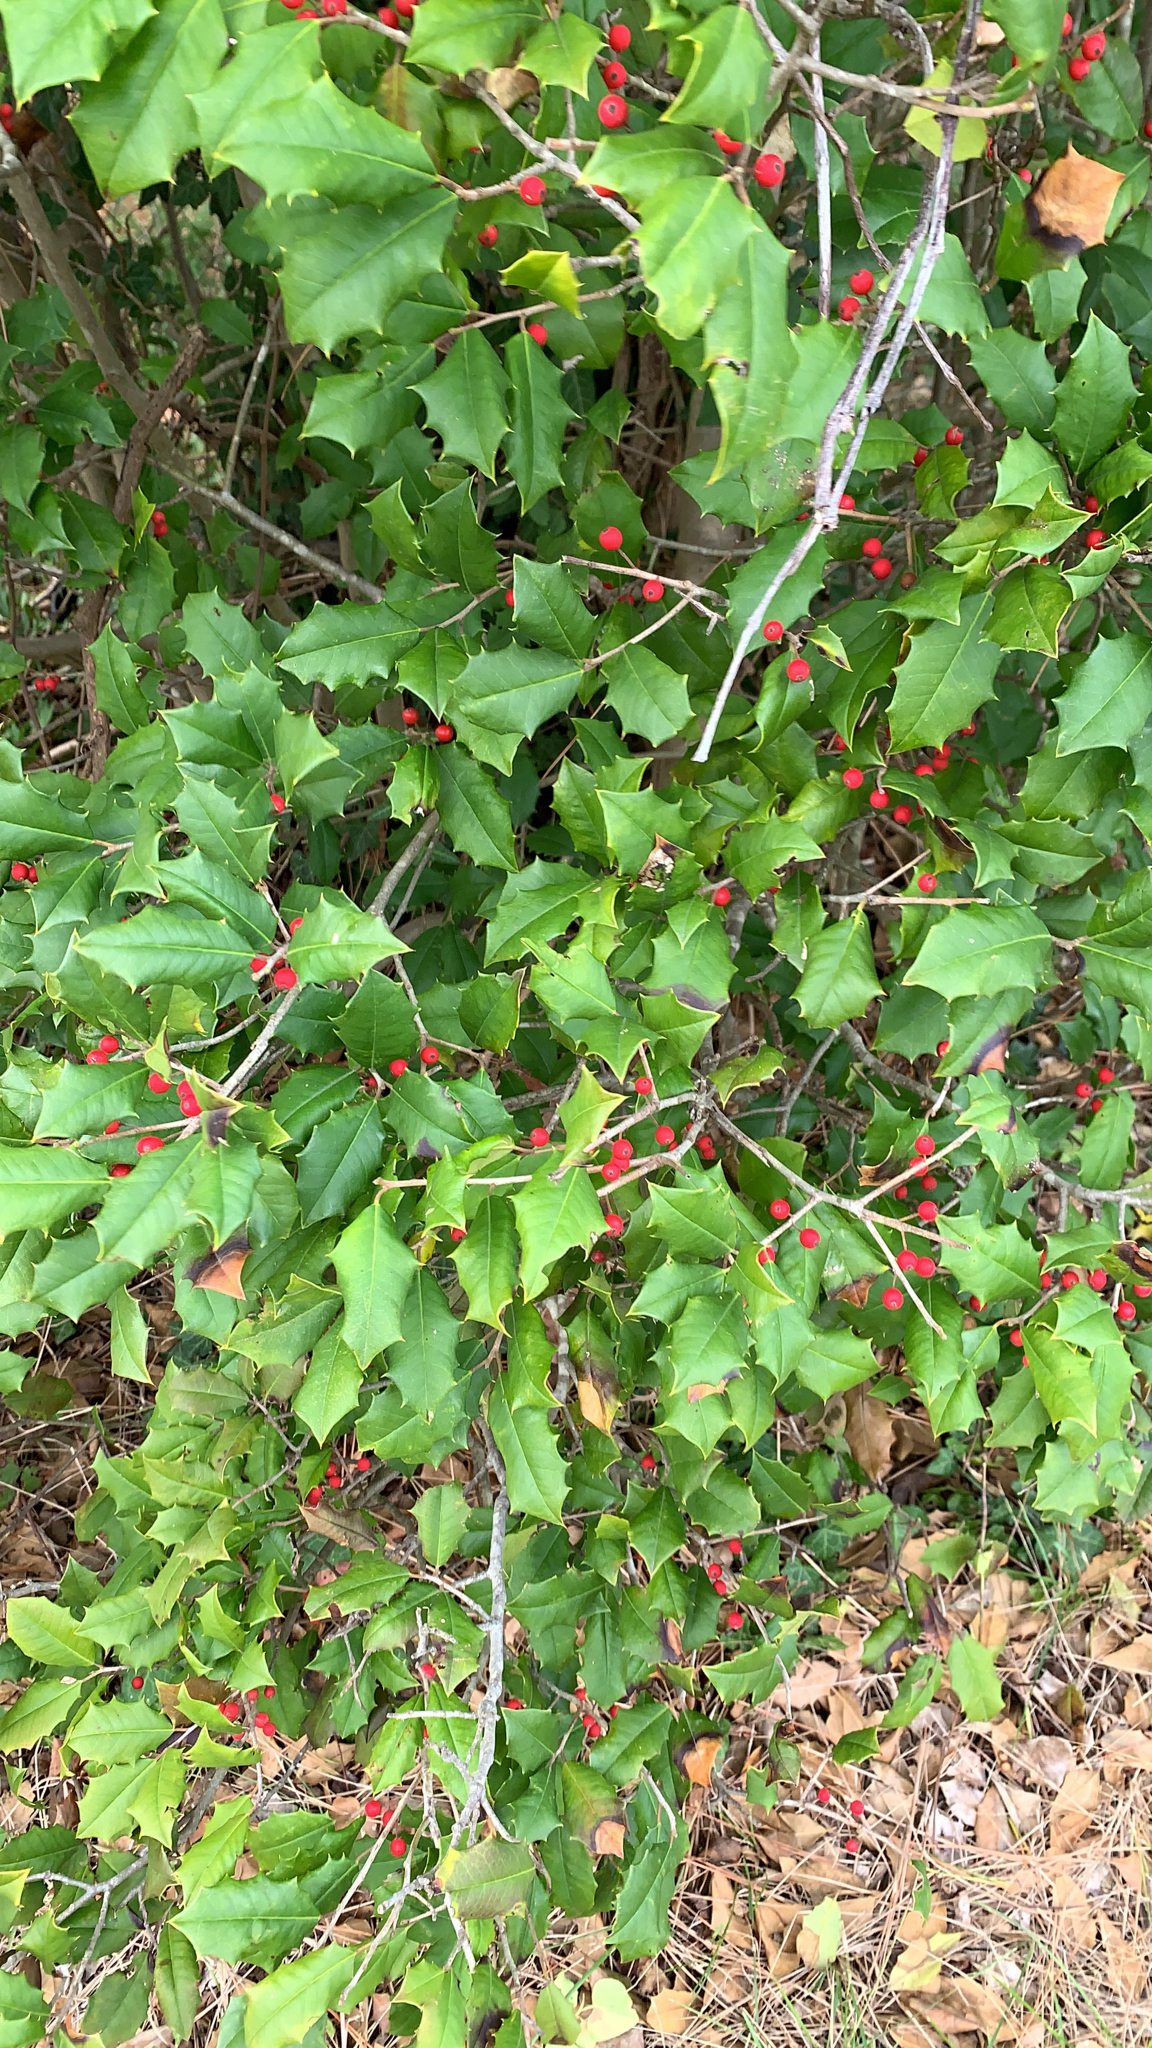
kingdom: Plantae
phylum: Tracheophyta
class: Magnoliopsida
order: Aquifoliales
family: Aquifoliaceae
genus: Ilex
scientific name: Ilex opaca
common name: American holly
